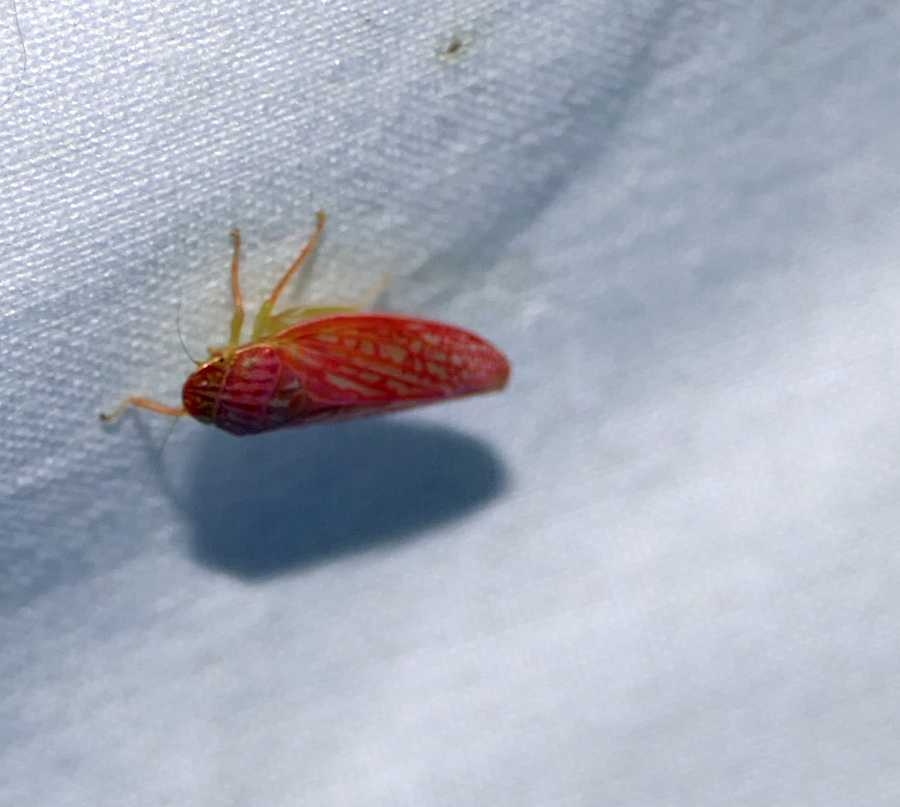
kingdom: Animalia
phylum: Arthropoda
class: Insecta
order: Hemiptera
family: Cicadellidae
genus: Gyponana
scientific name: Gyponana gladia
